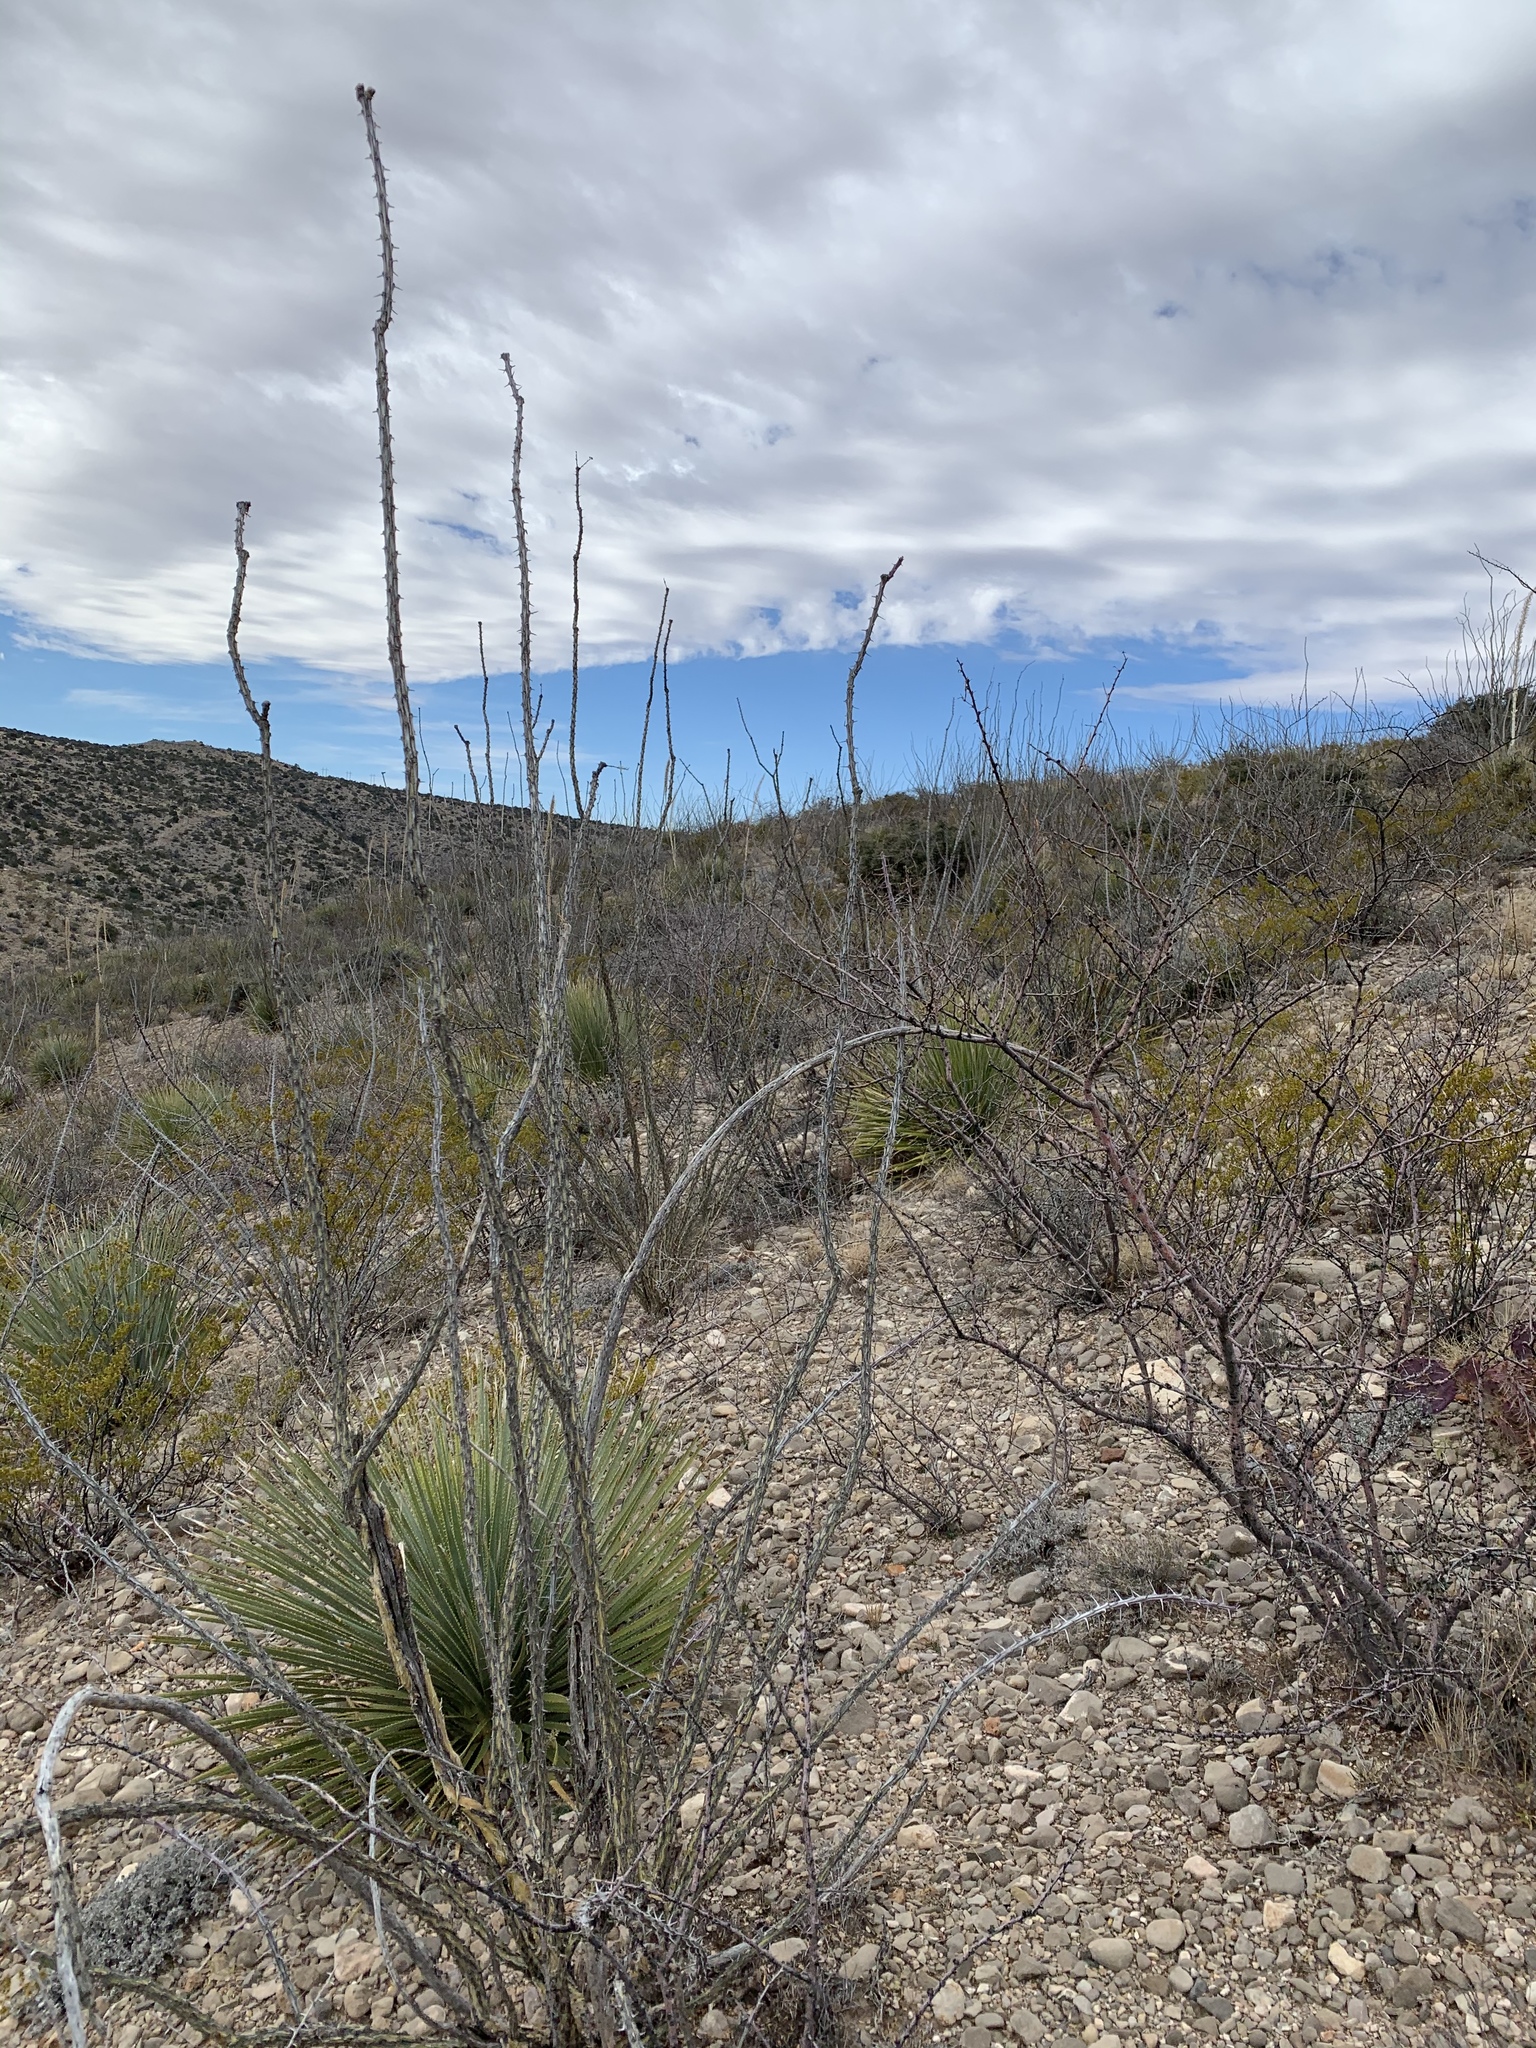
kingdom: Plantae
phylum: Tracheophyta
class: Magnoliopsida
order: Ericales
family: Fouquieriaceae
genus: Fouquieria
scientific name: Fouquieria splendens
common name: Vine-cactus
